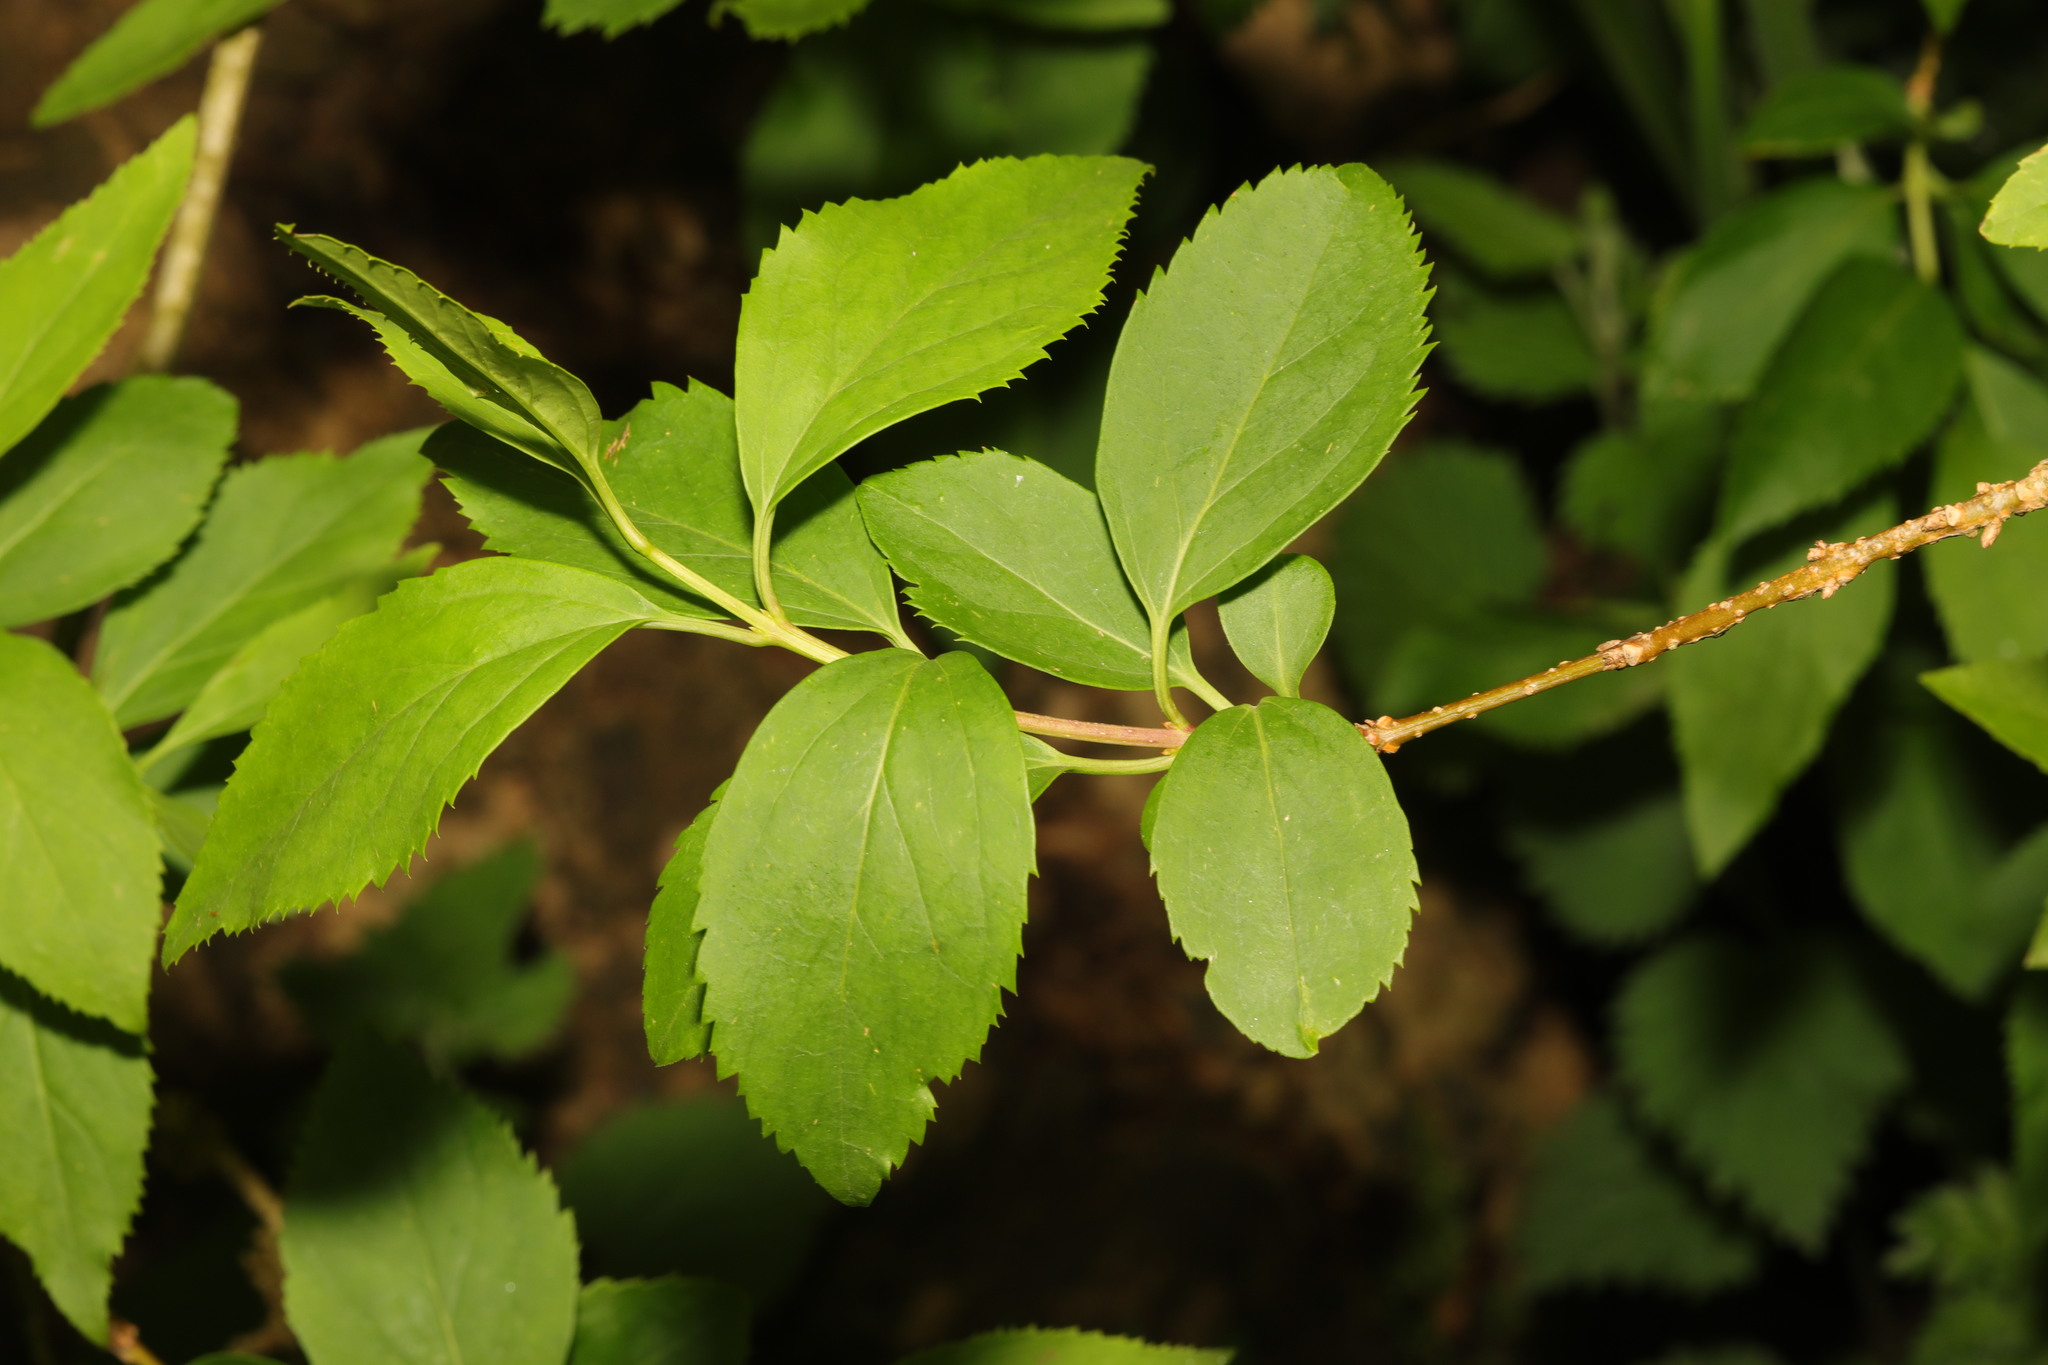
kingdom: Plantae
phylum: Tracheophyta
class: Magnoliopsida
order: Lamiales
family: Oleaceae
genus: Forsythia
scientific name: Forsythia intermedia
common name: Forsythia
